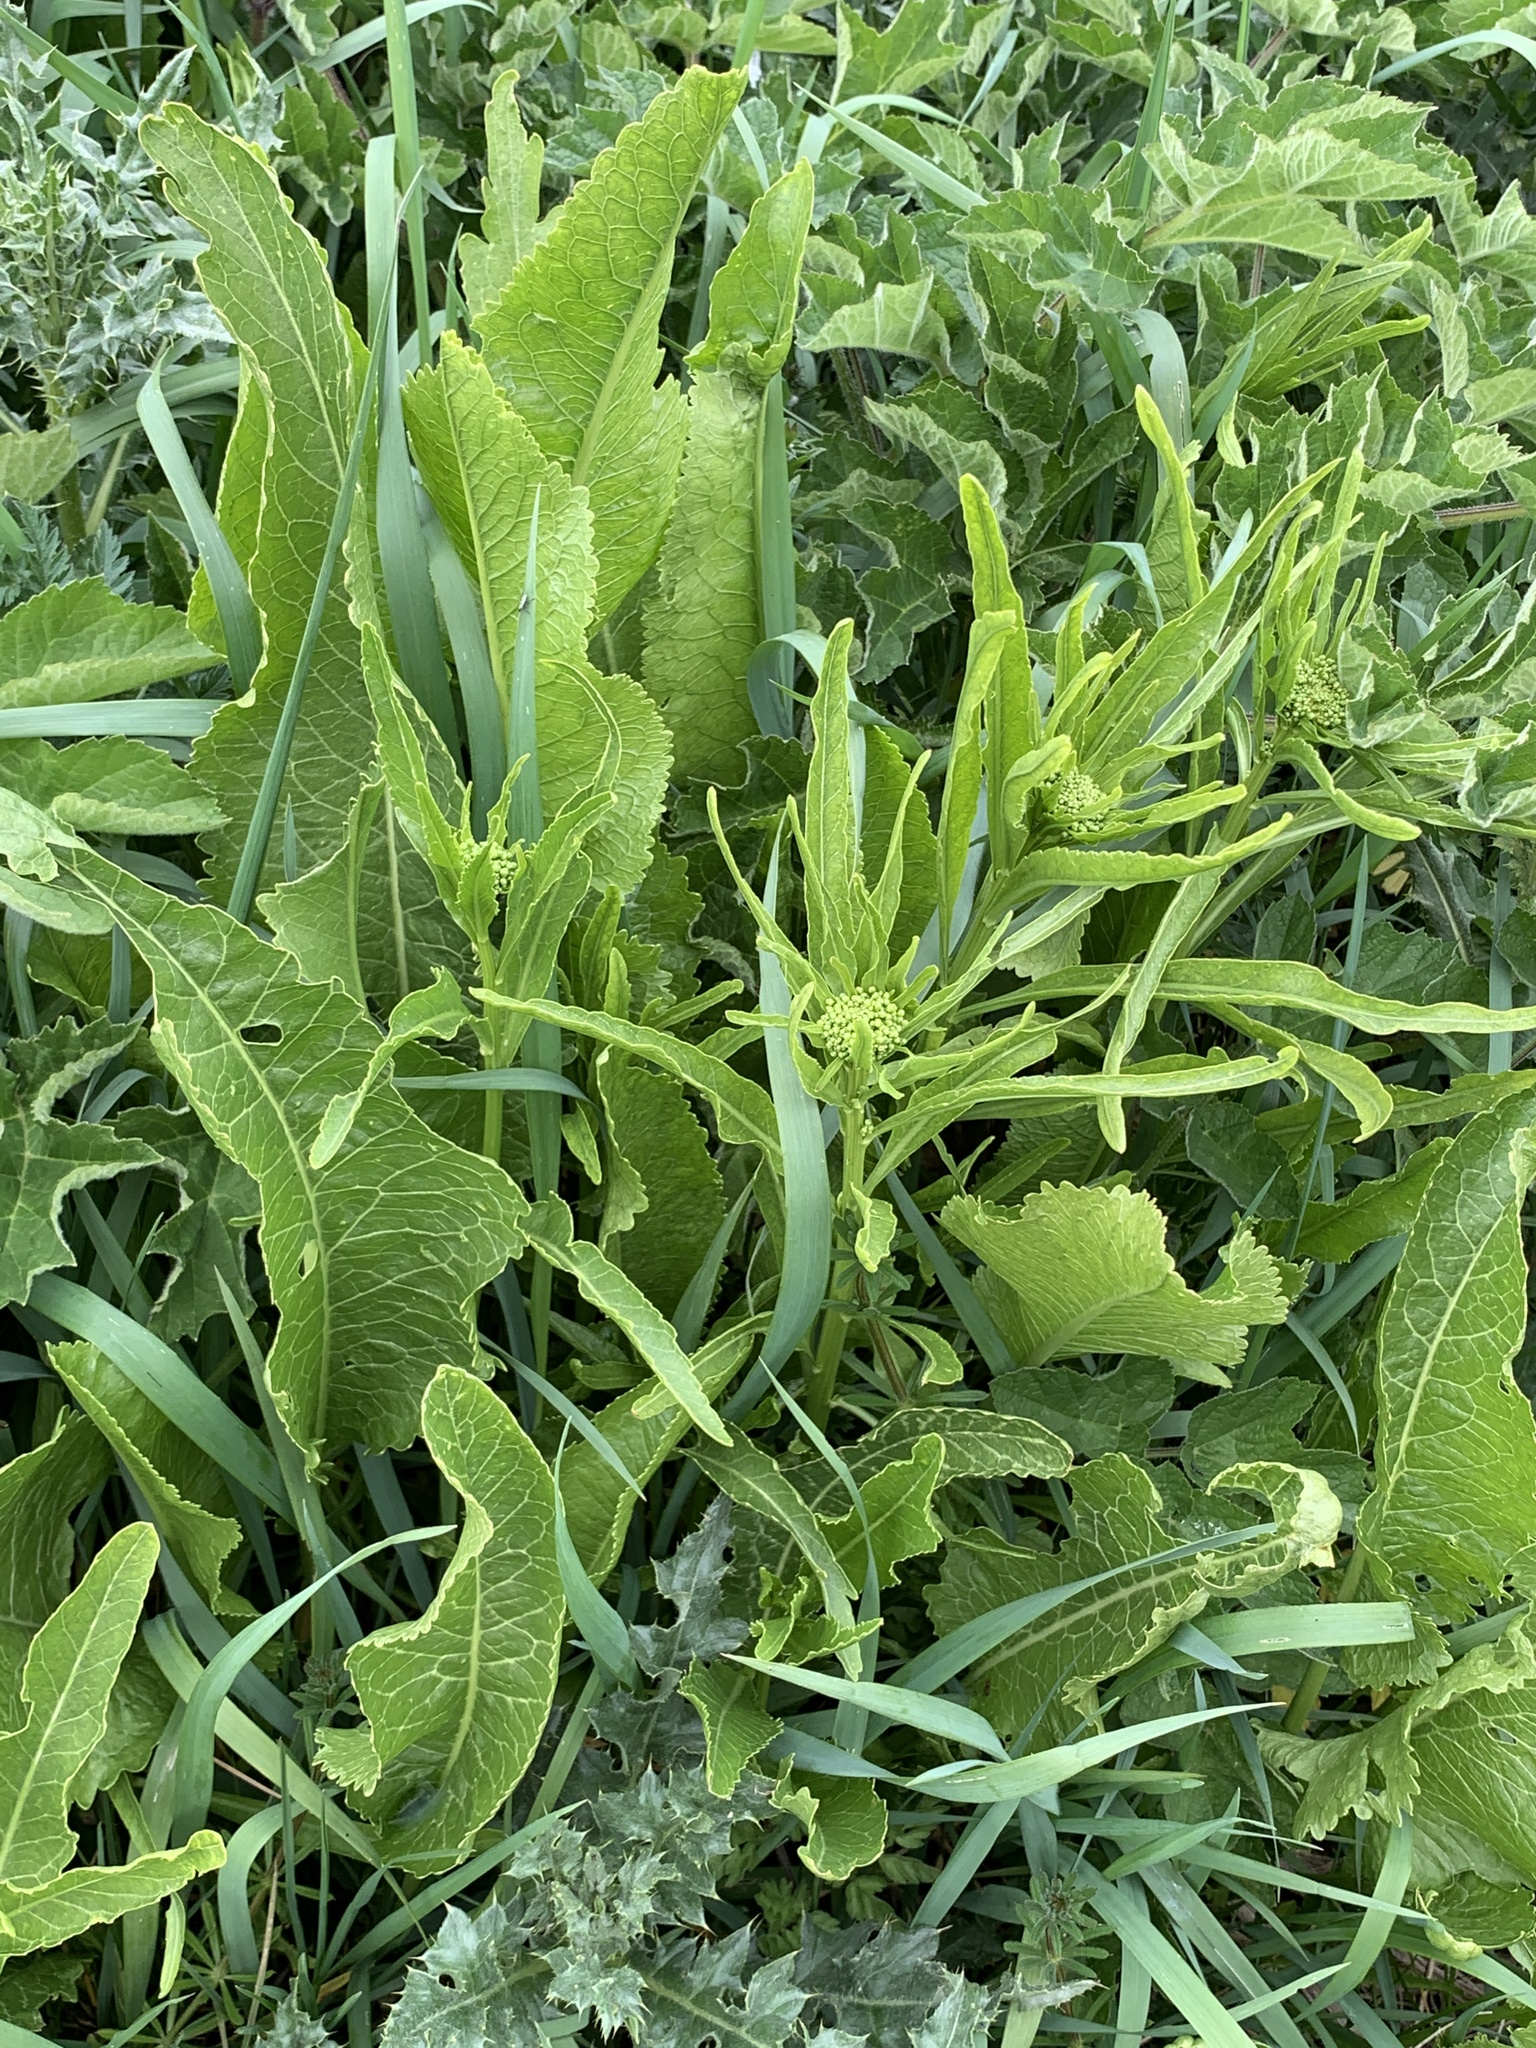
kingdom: Plantae
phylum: Tracheophyta
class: Magnoliopsida
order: Brassicales
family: Brassicaceae
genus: Armoracia
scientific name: Armoracia rusticana
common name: Horseradish
